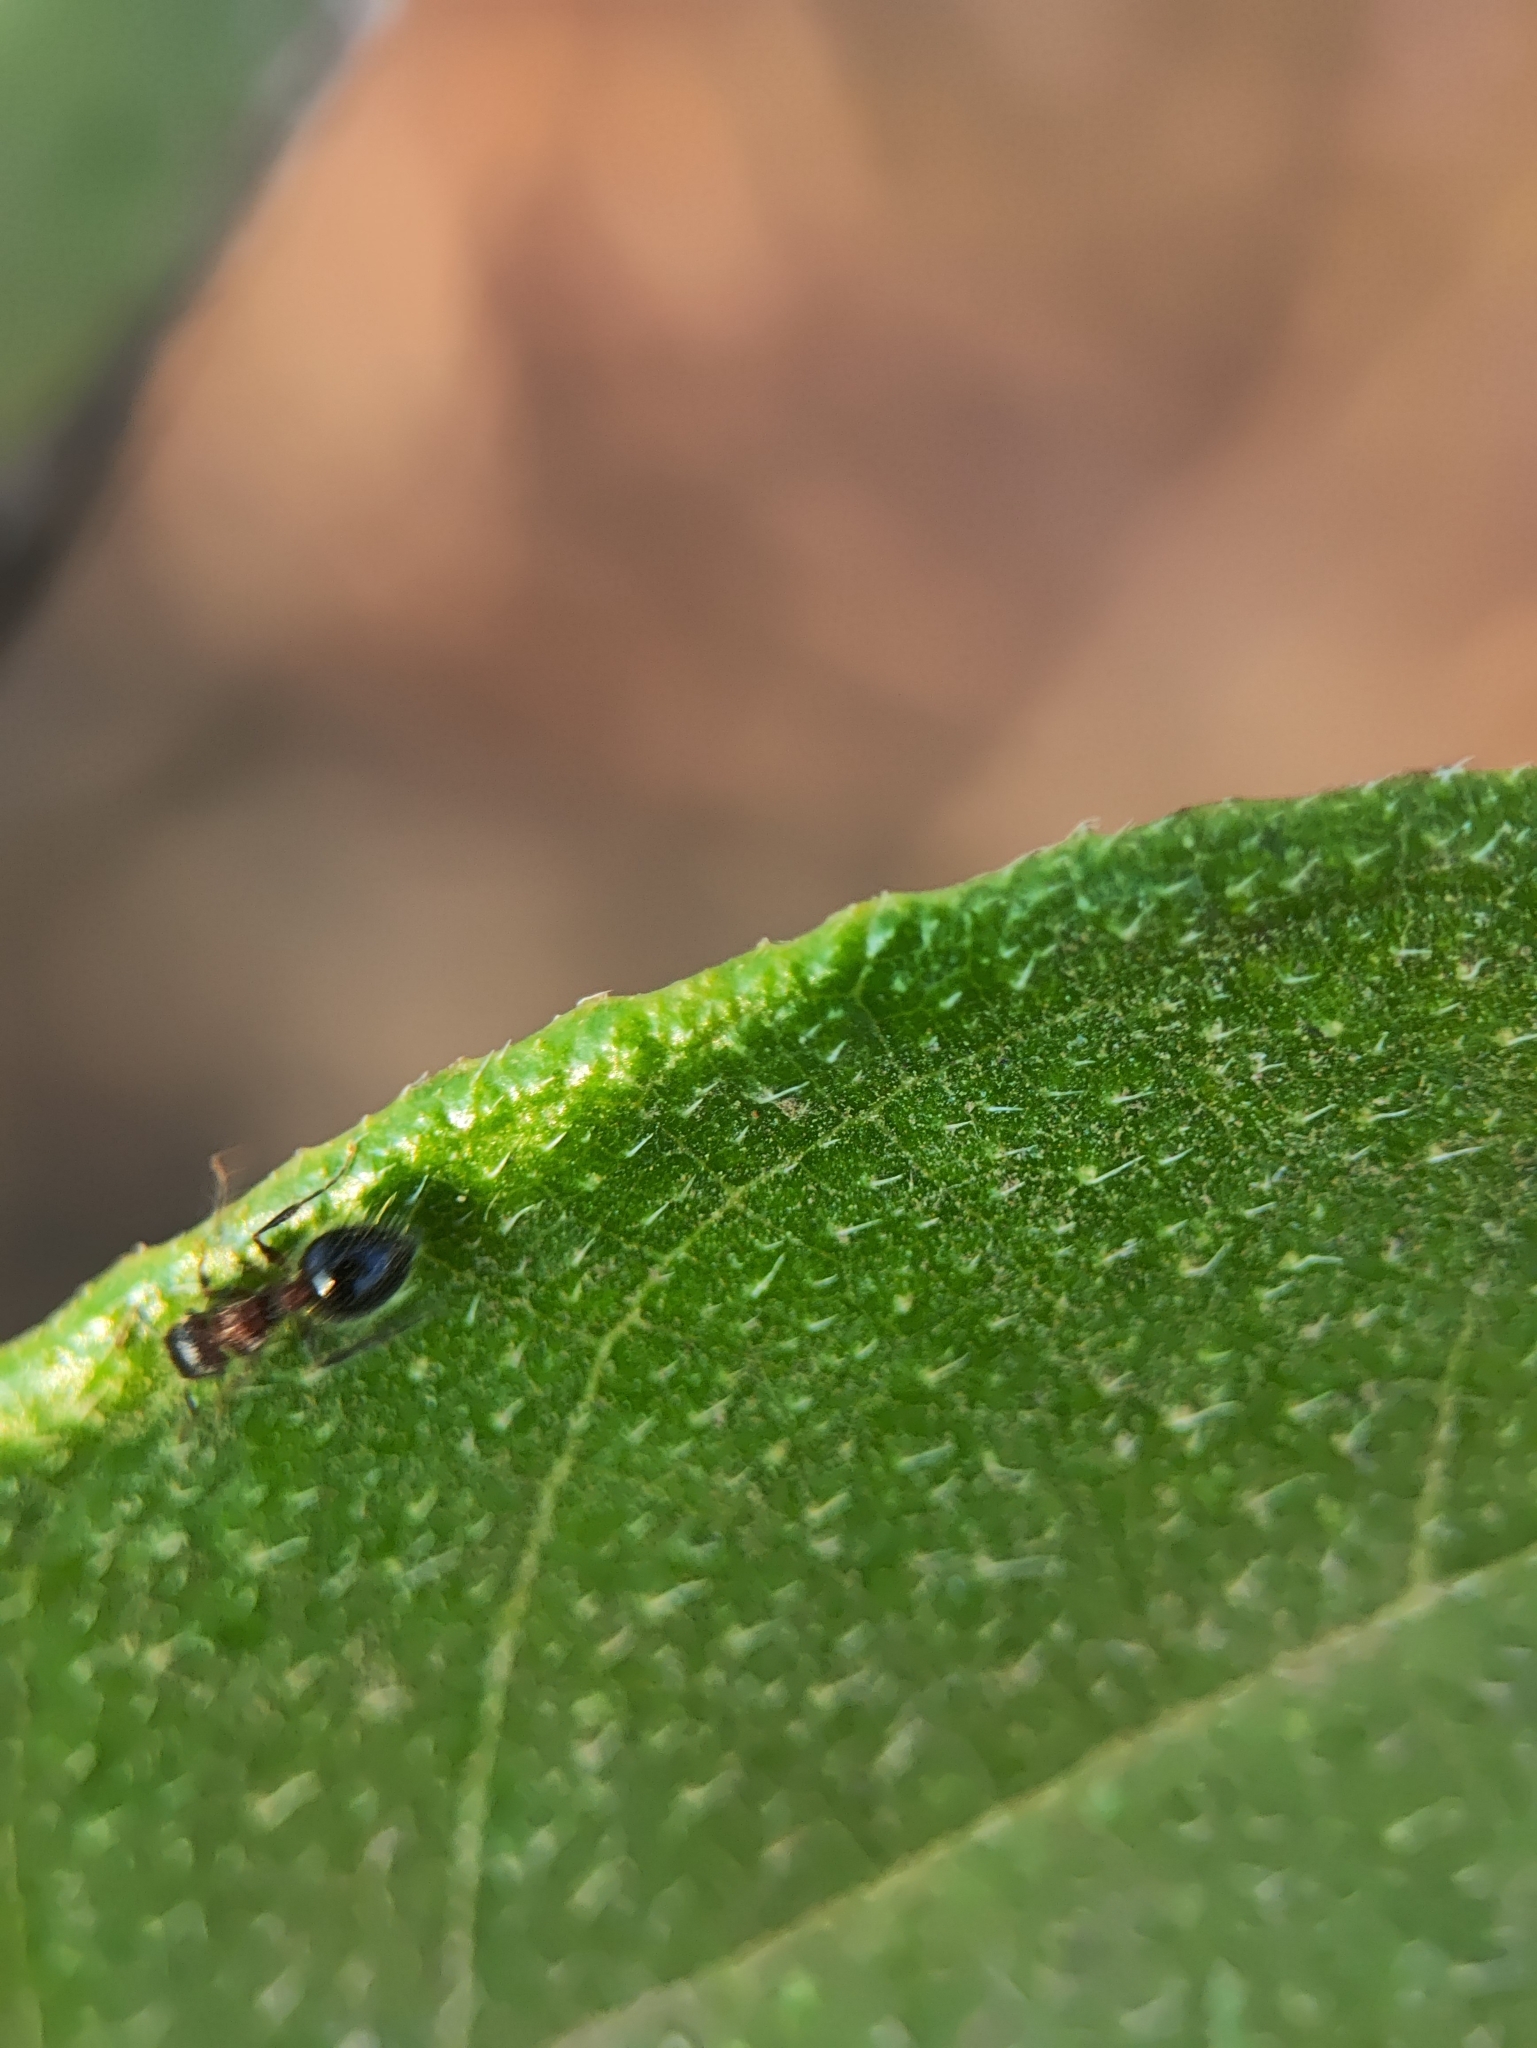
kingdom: Animalia
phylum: Arthropoda
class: Insecta
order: Hymenoptera
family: Formicidae
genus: Meranoplus
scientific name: Meranoplus bicolor
